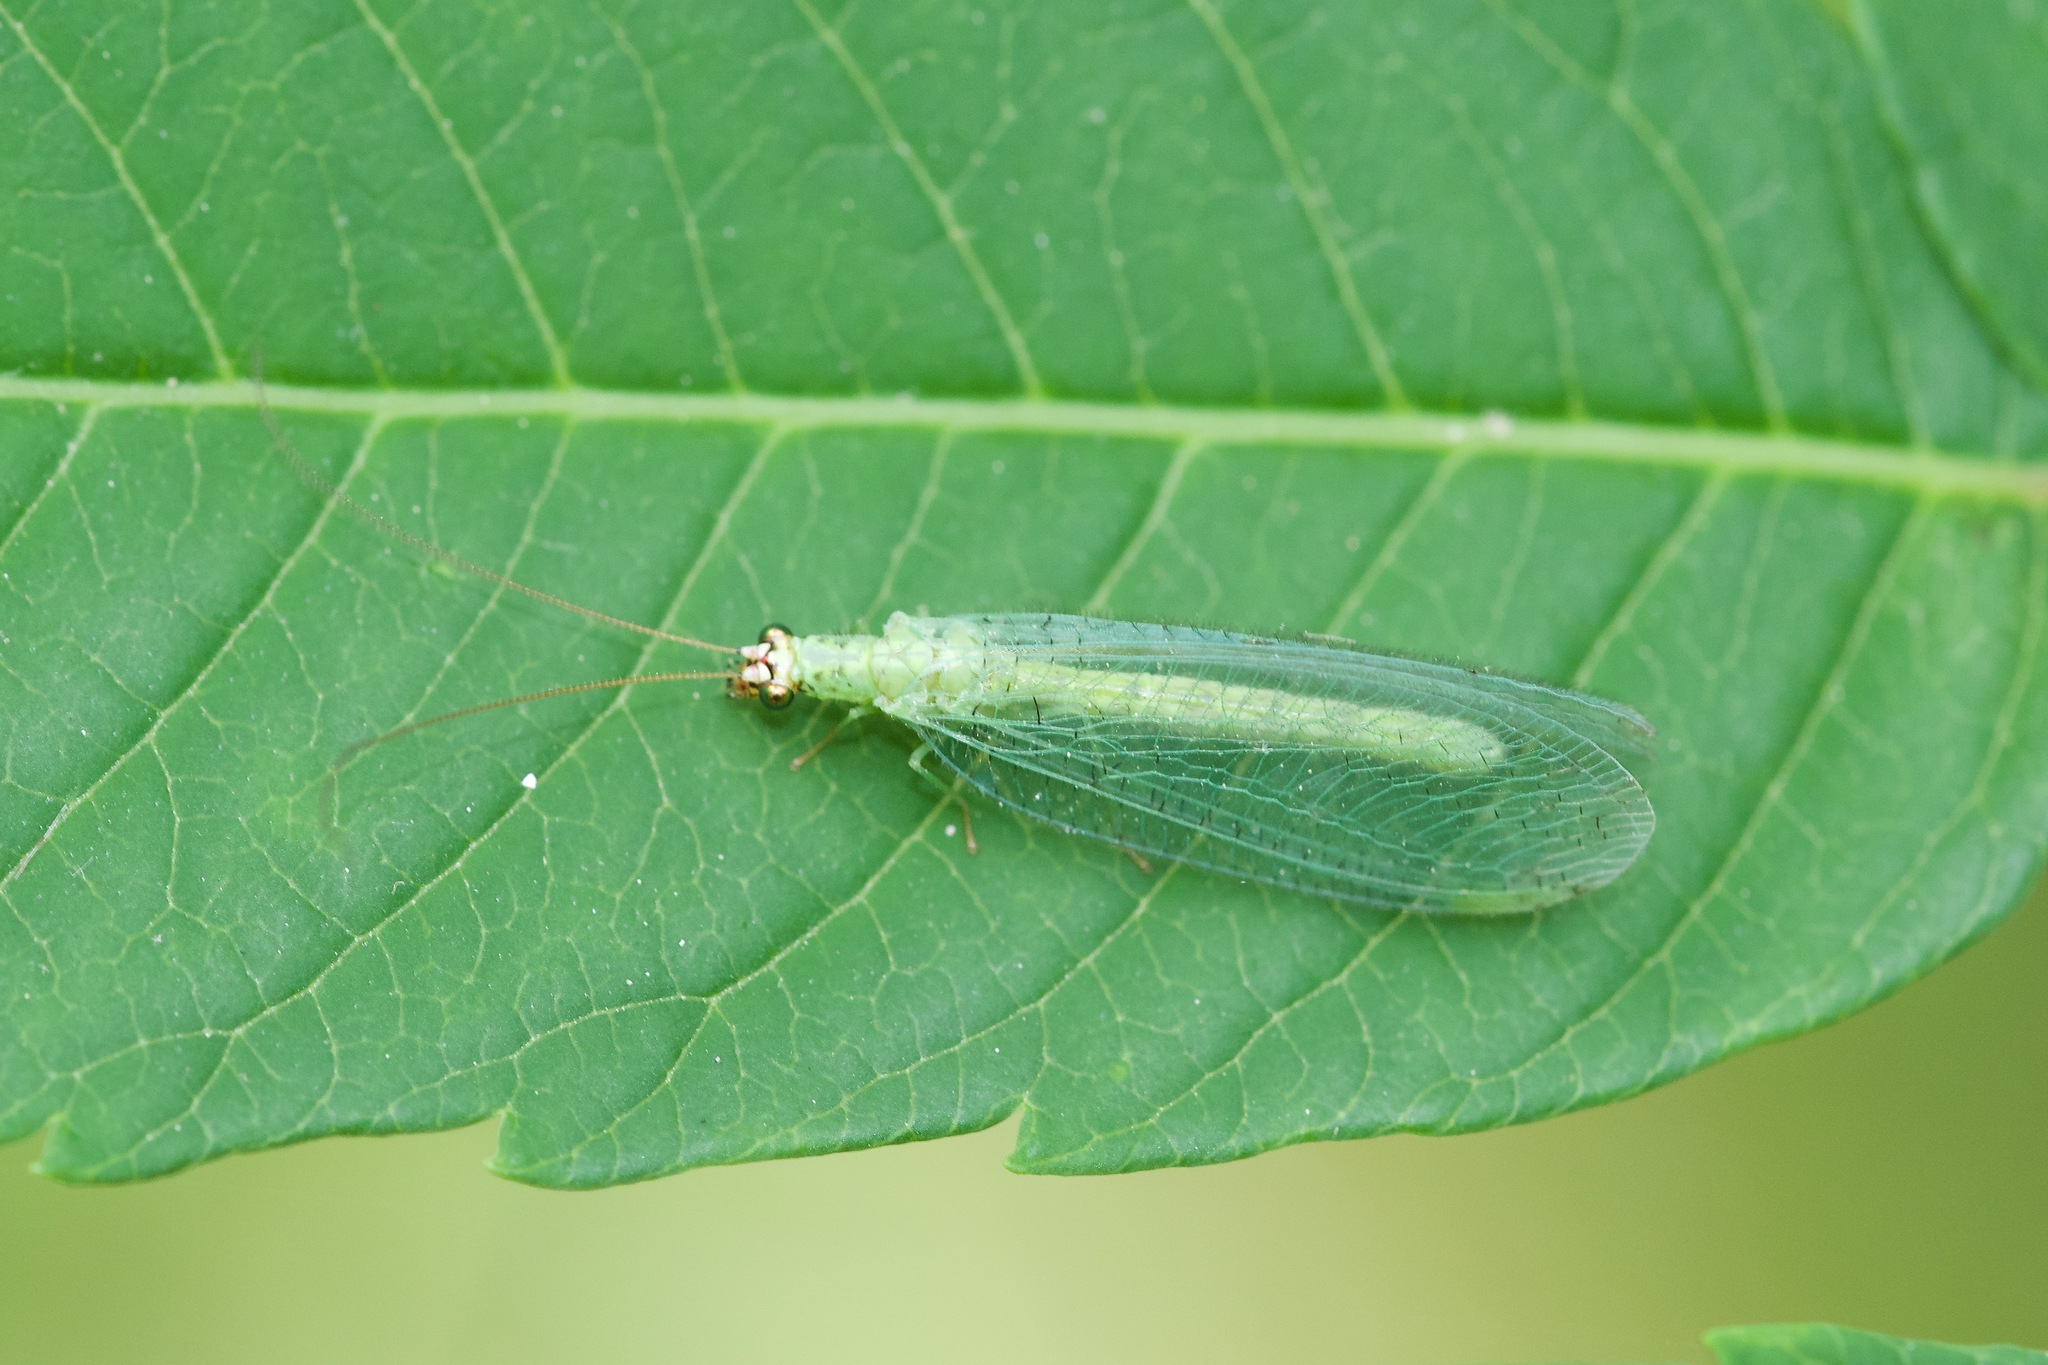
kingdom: Animalia
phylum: Arthropoda
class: Insecta
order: Neuroptera
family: Chrysopidae
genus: Chrysopa
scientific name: Chrysopa oculata
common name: Golden-eyed lacewing
